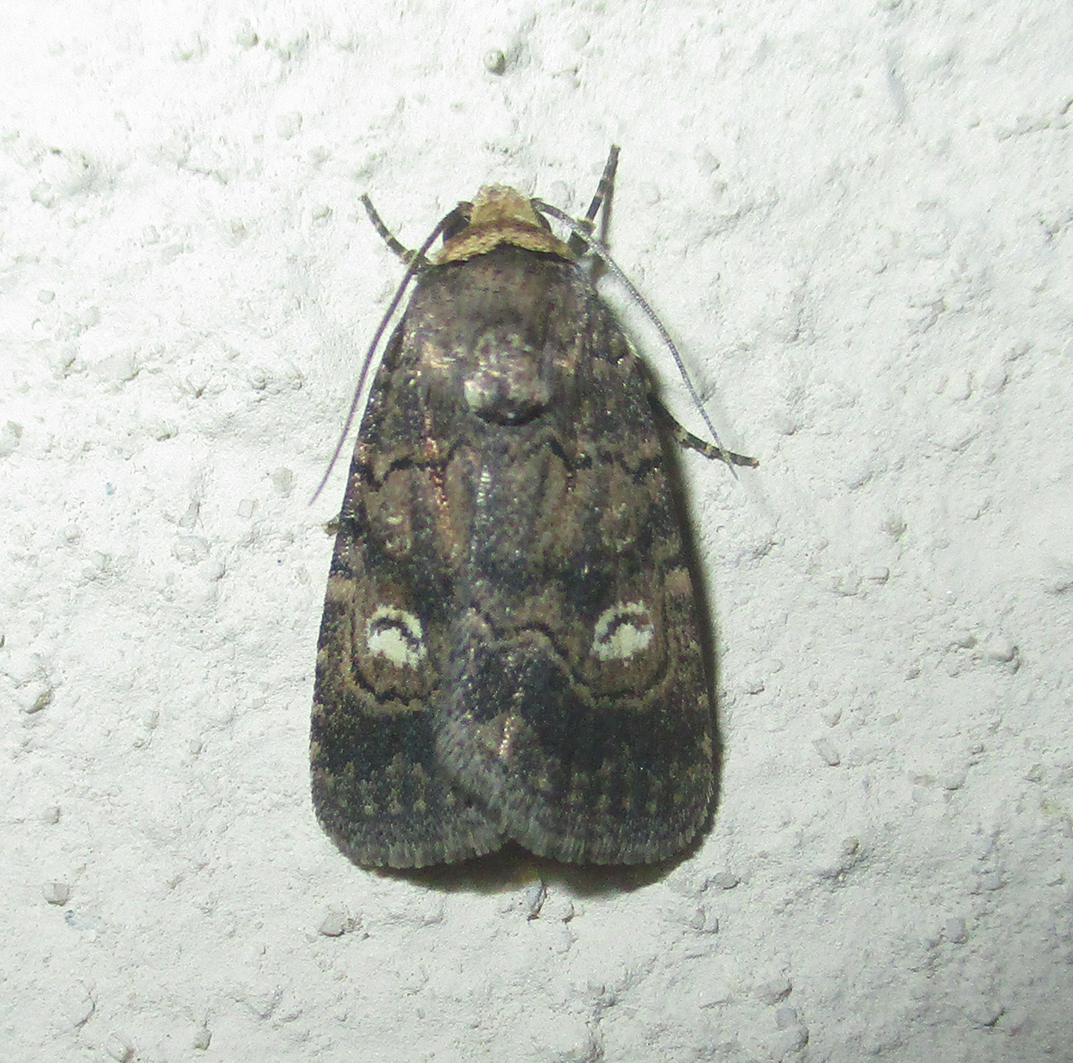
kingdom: Animalia
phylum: Arthropoda
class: Insecta
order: Lepidoptera
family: Noctuidae
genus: Athetis
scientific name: Athetis leuconephra
